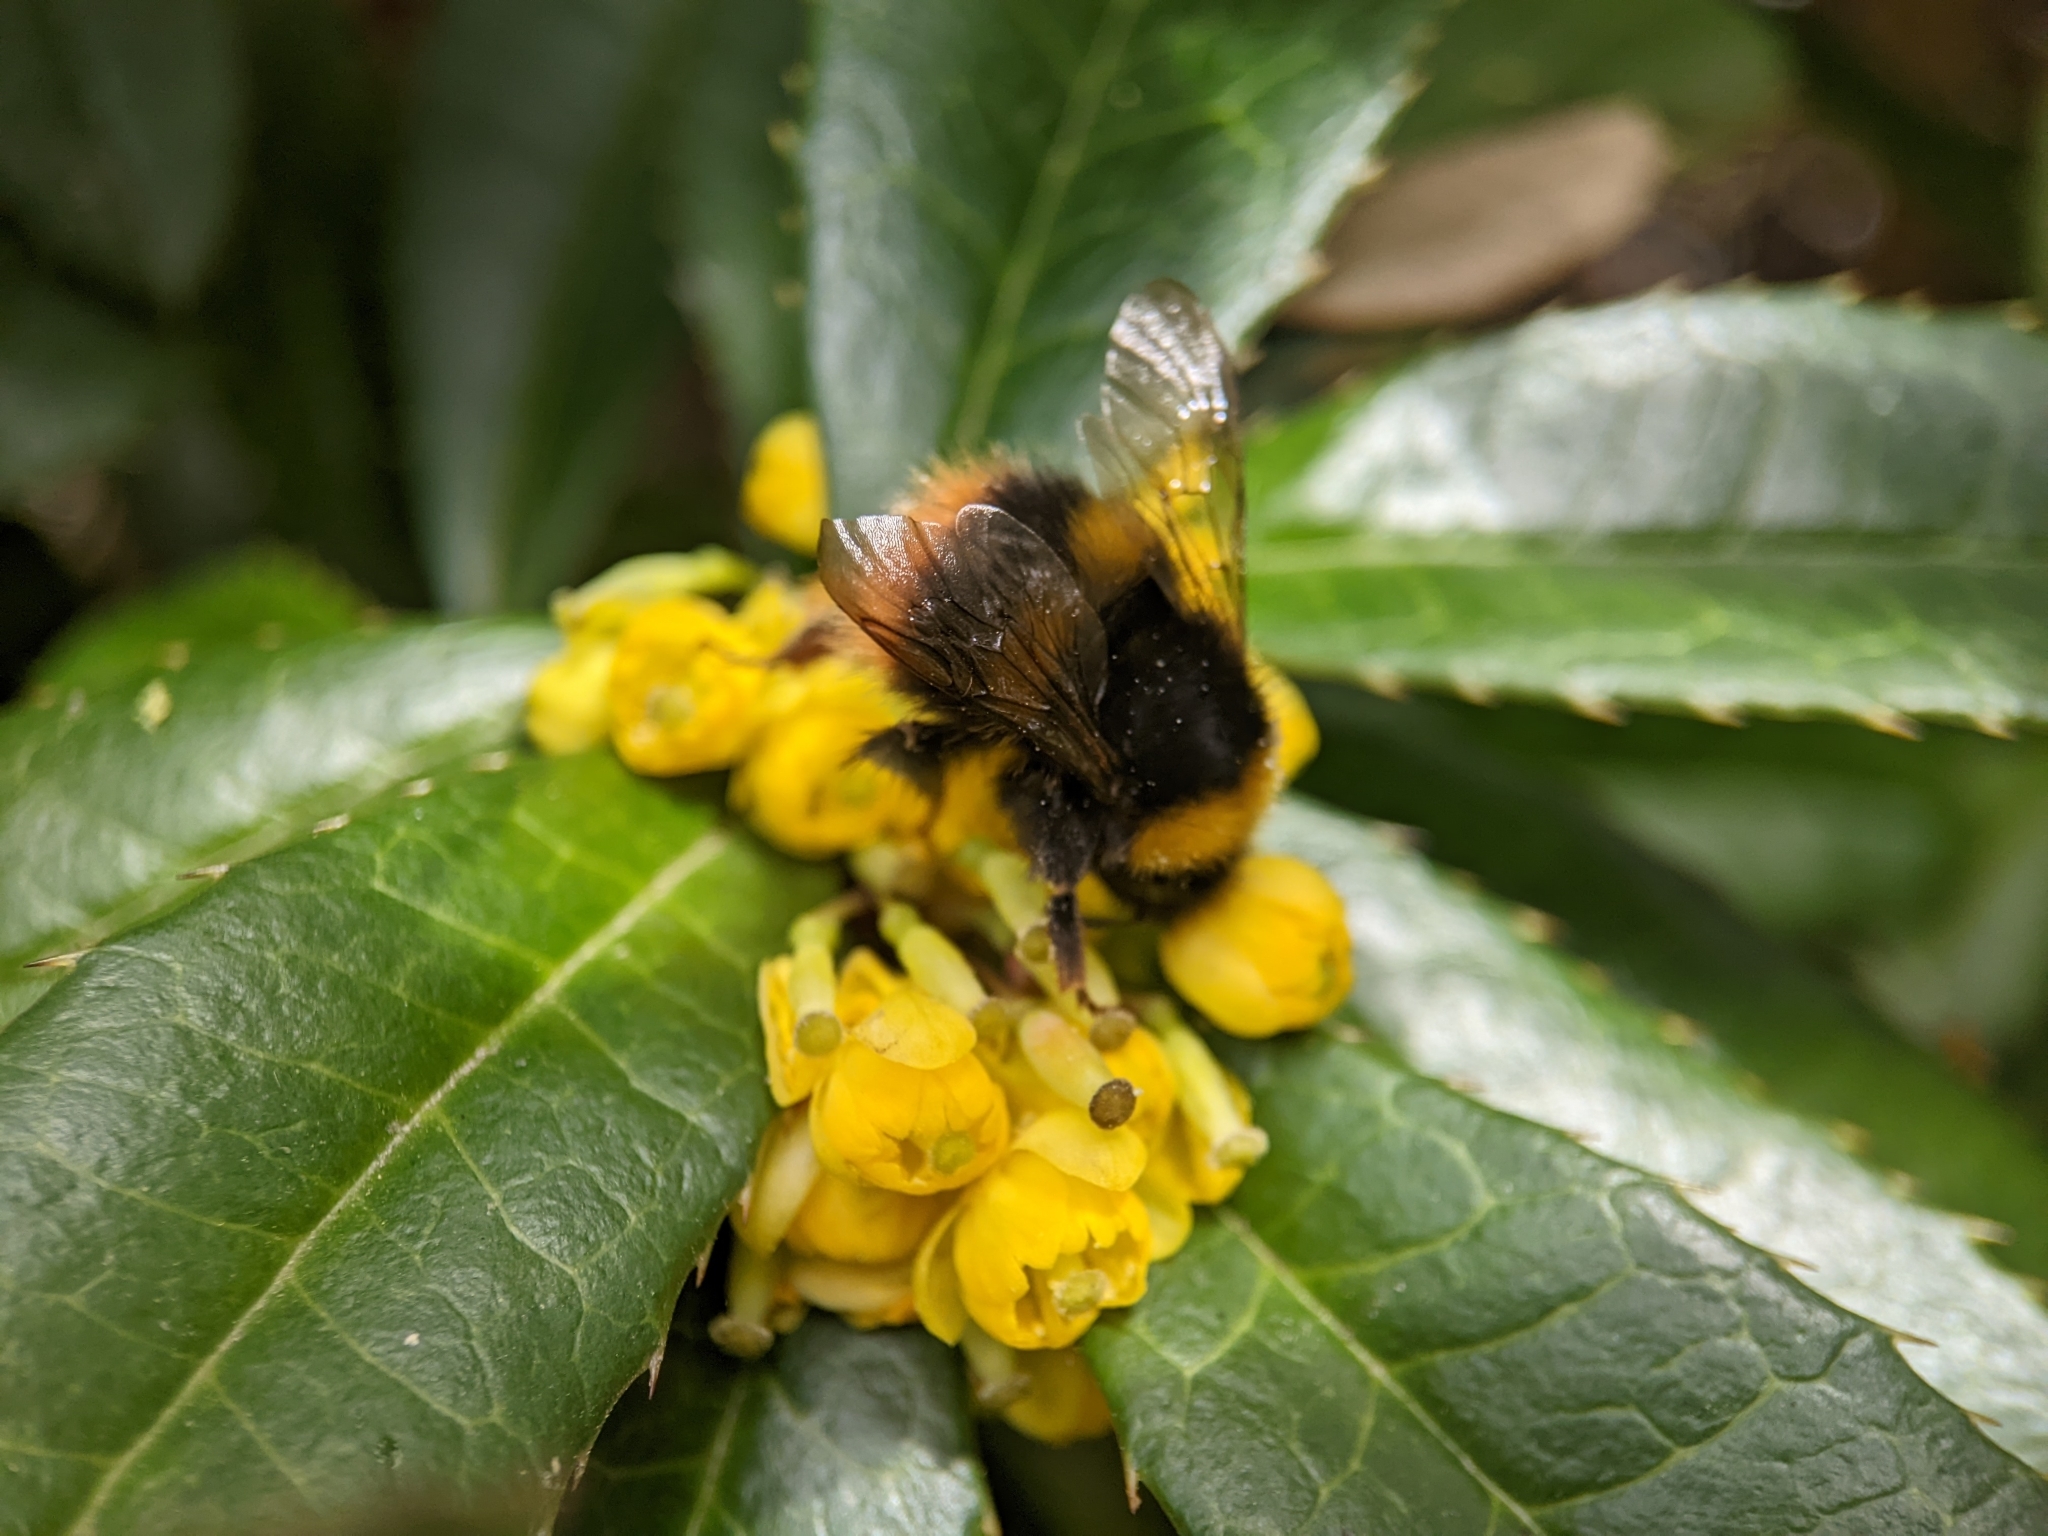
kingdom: Animalia
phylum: Arthropoda
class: Insecta
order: Hymenoptera
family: Apidae
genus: Bombus
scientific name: Bombus pratorum
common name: Early humble-bee
